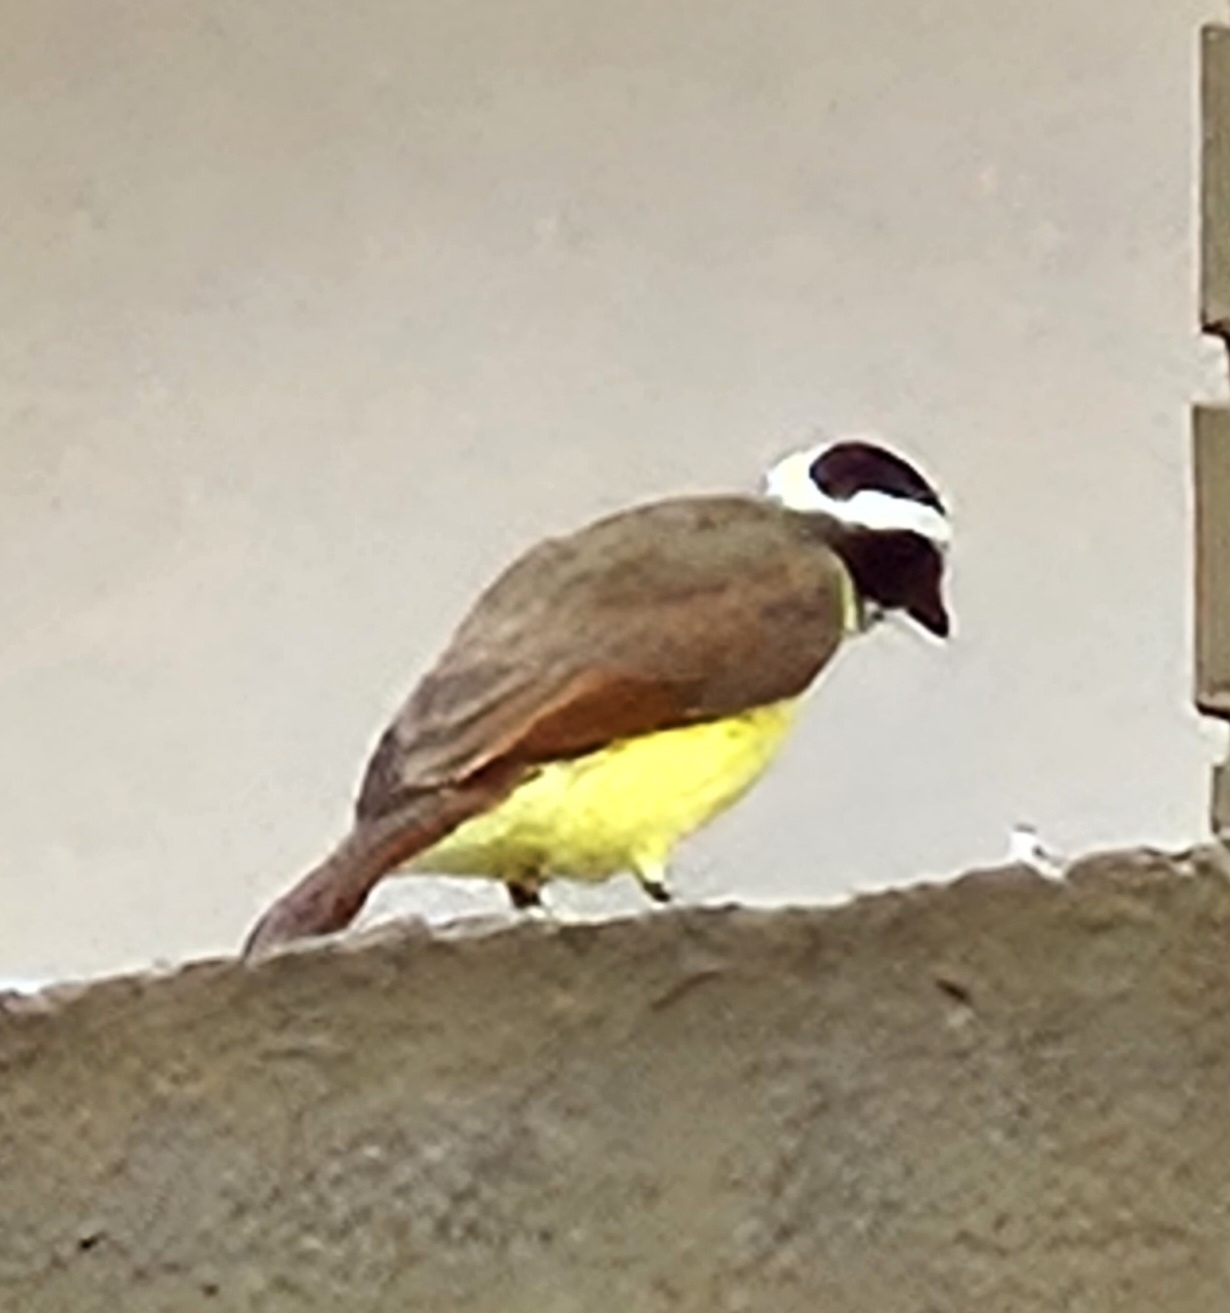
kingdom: Animalia
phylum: Chordata
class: Aves
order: Passeriformes
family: Tyrannidae
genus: Pitangus
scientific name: Pitangus sulphuratus
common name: Great kiskadee
